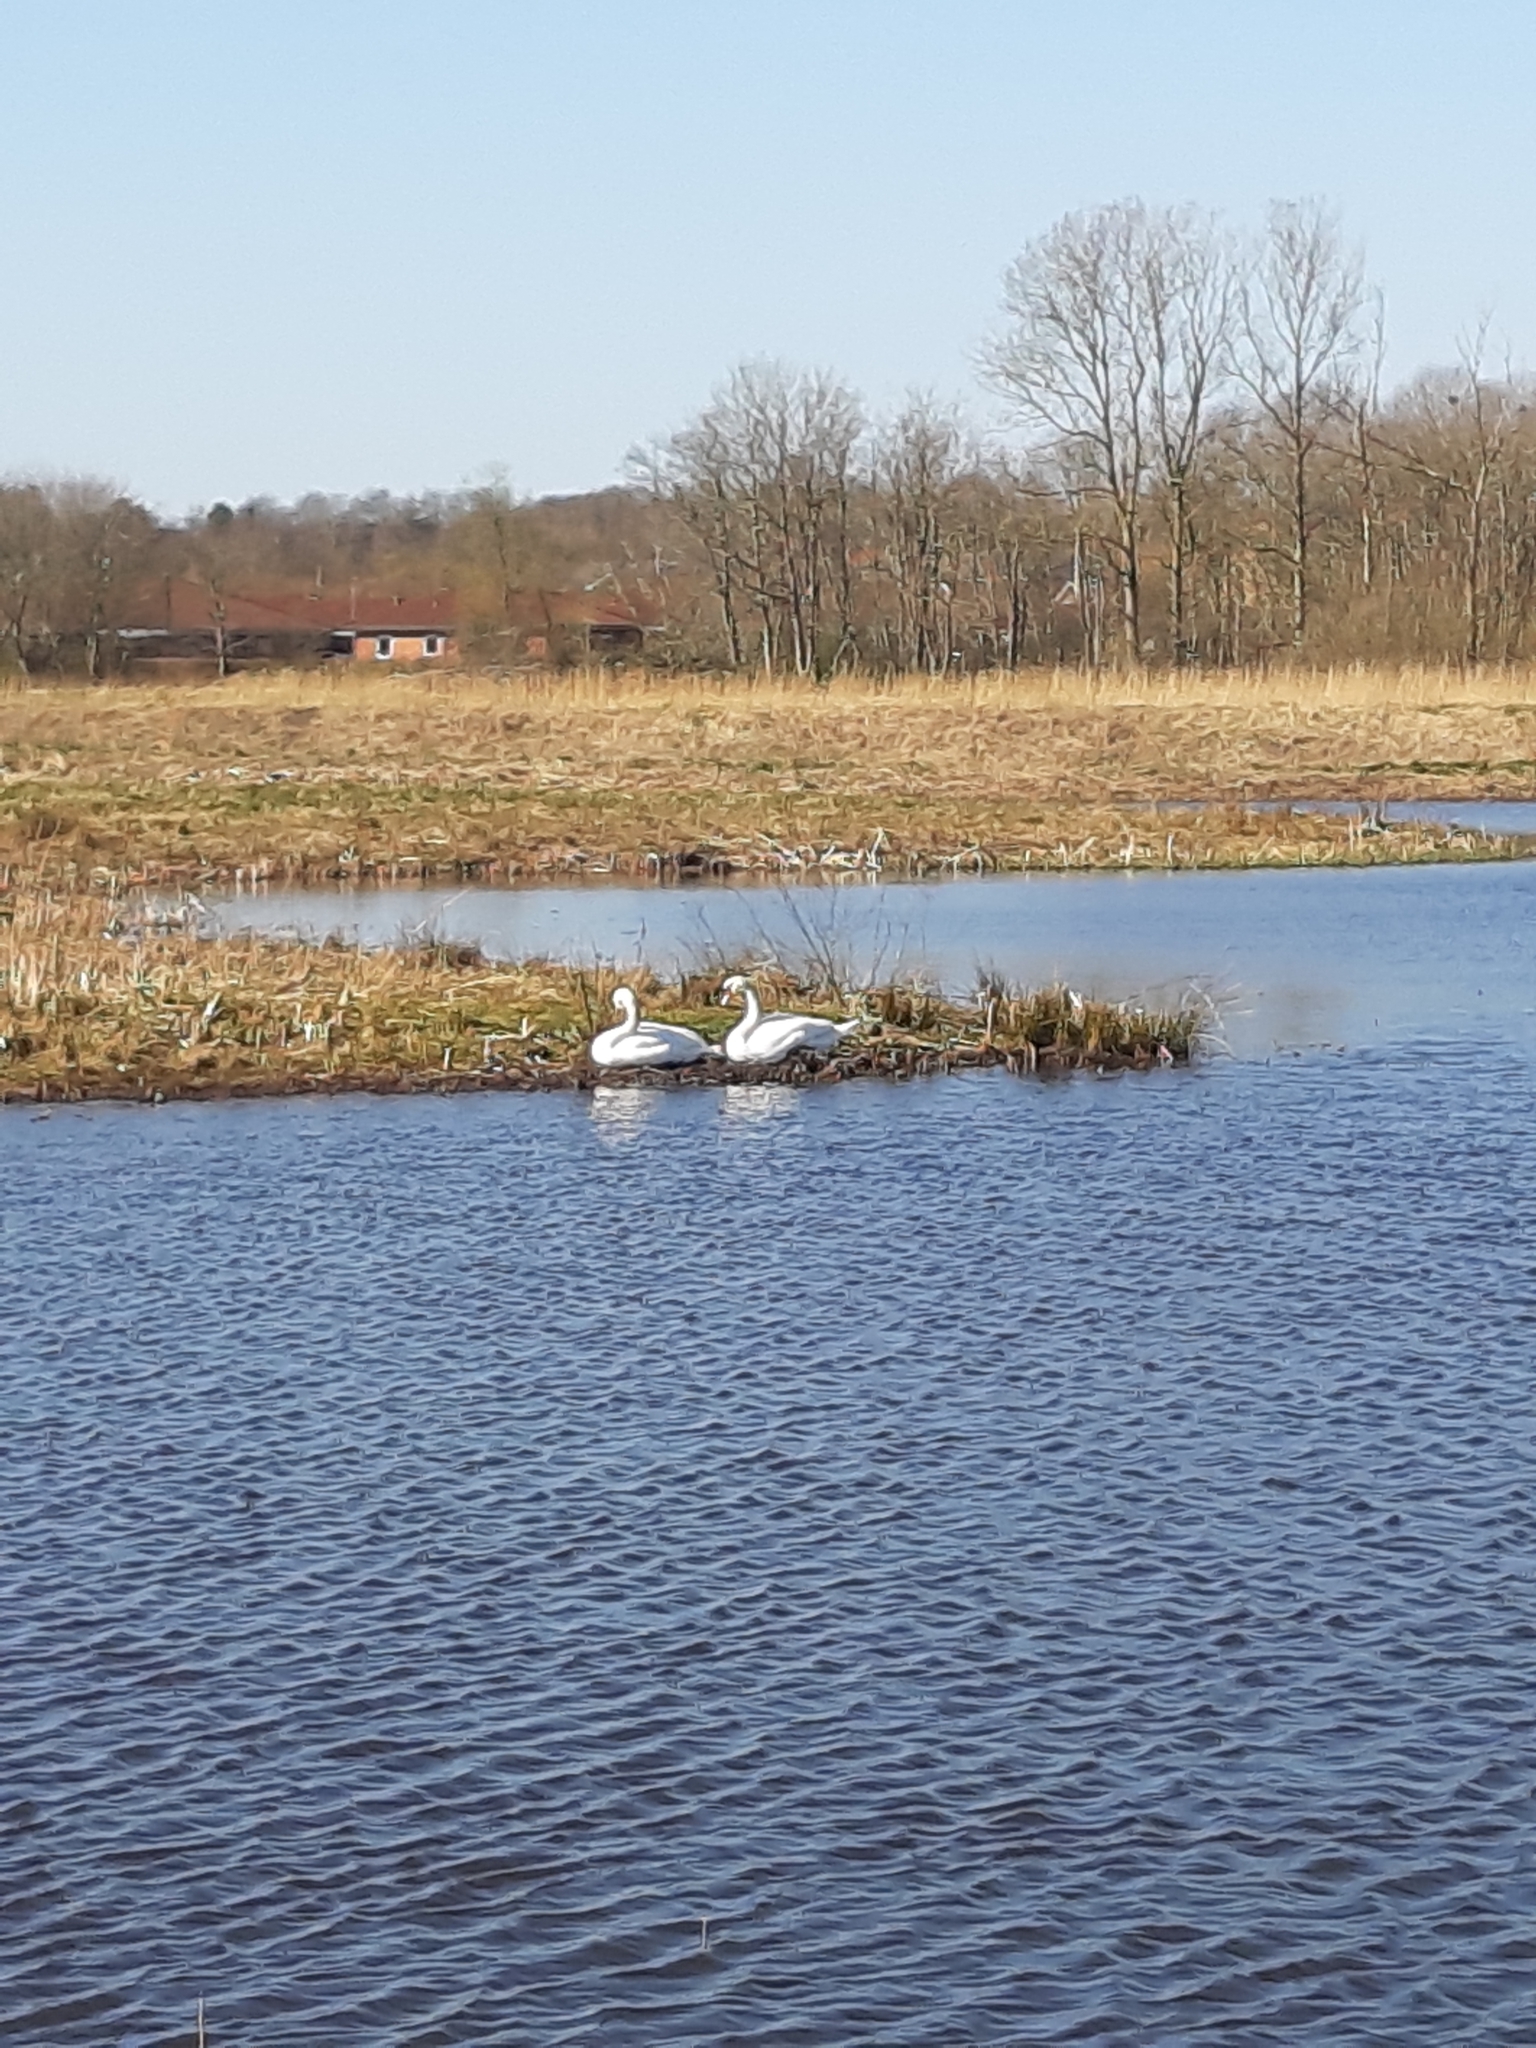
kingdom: Animalia
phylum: Chordata
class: Aves
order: Anseriformes
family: Anatidae
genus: Cygnus
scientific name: Cygnus olor
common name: Mute swan
